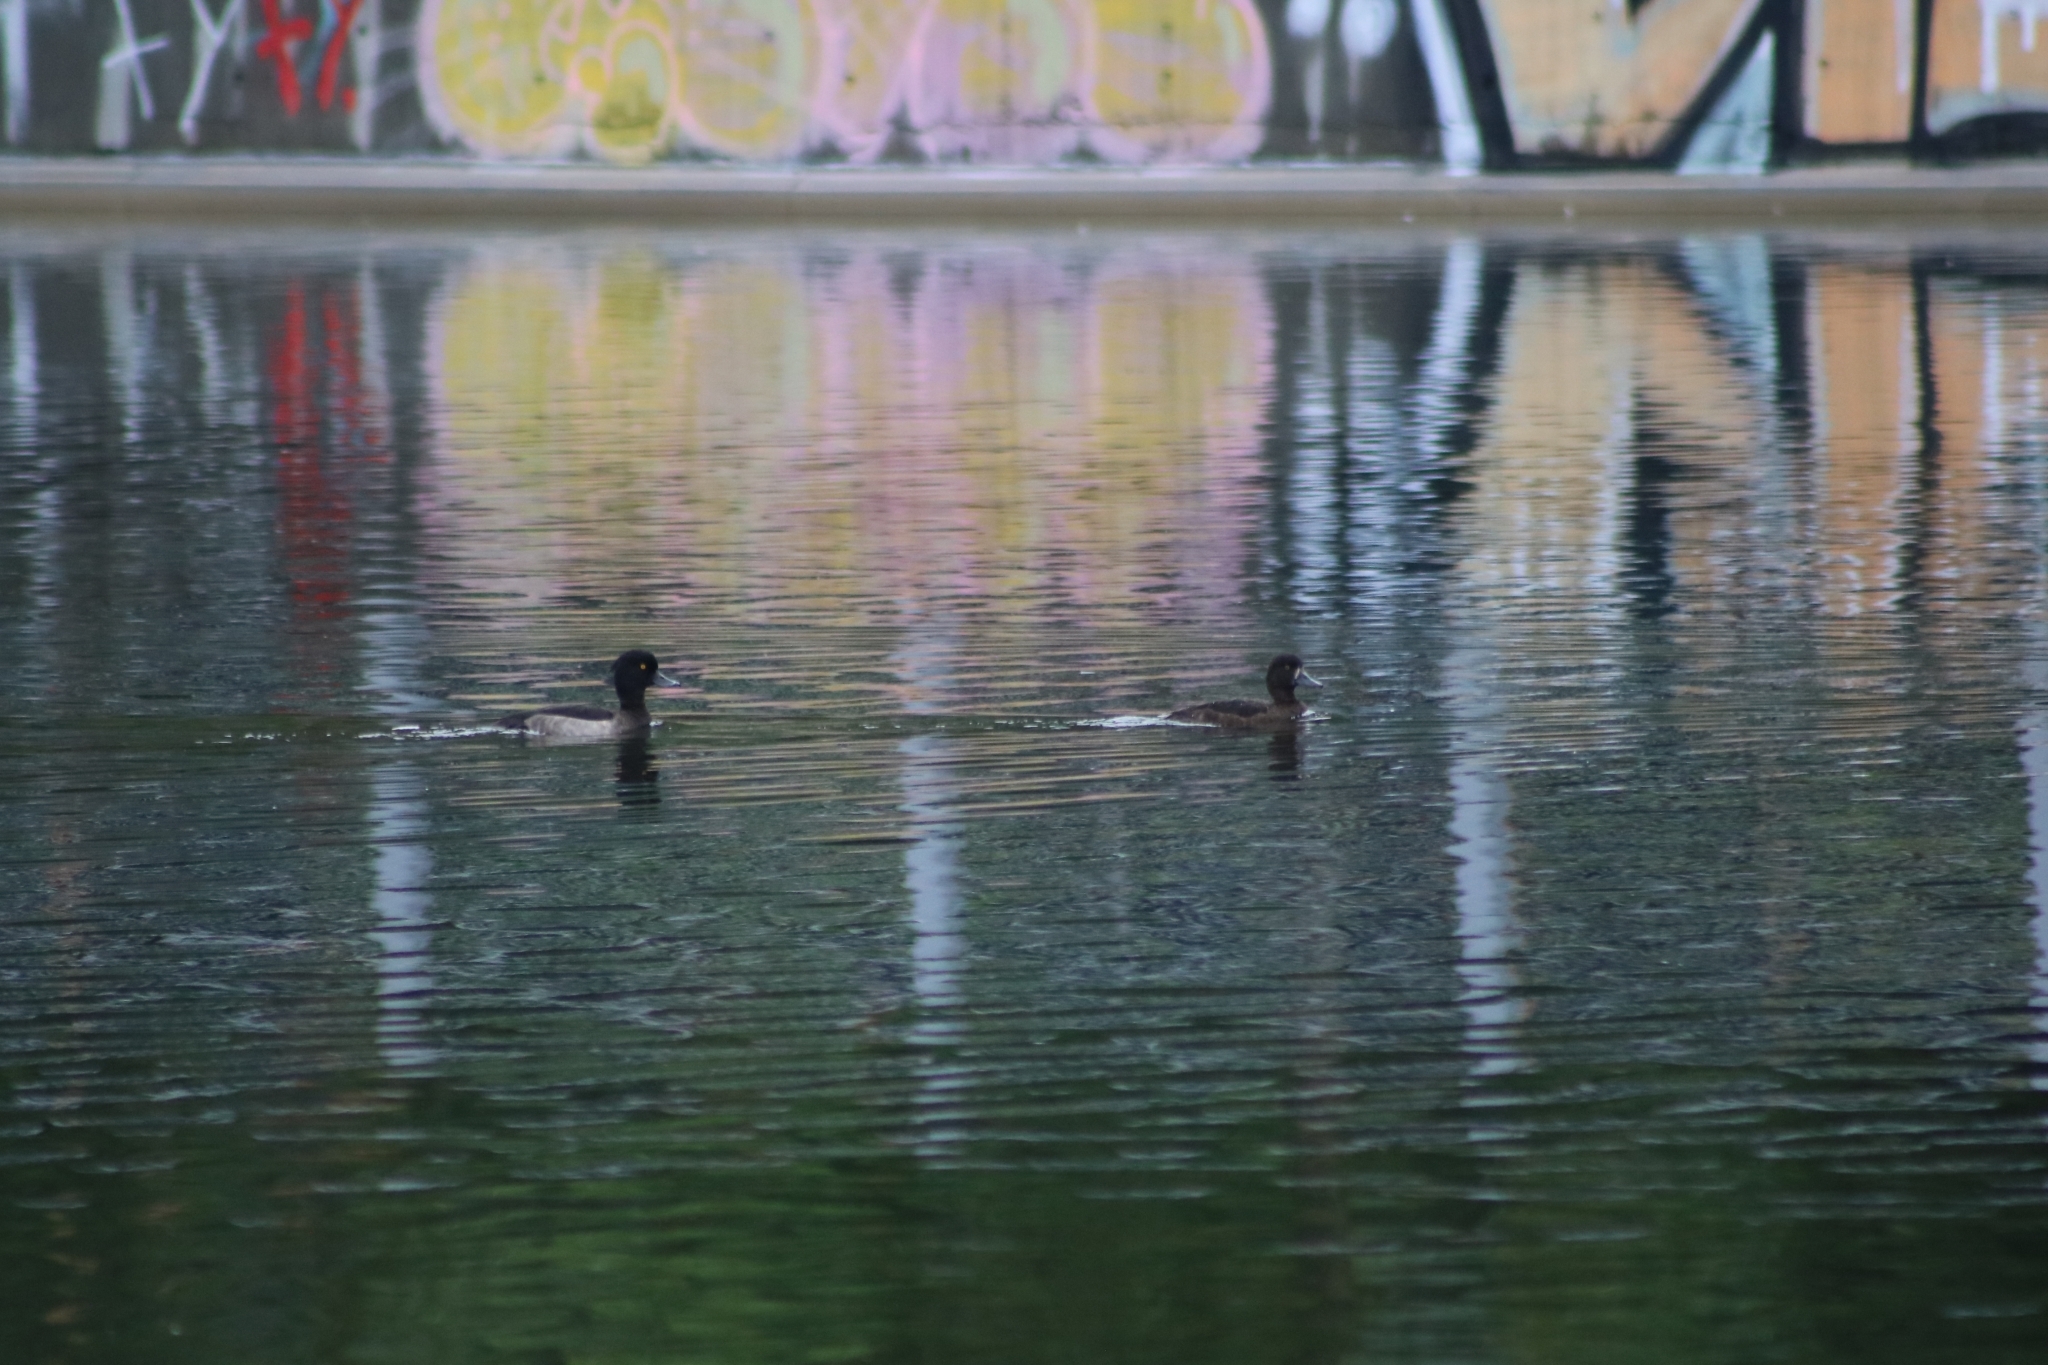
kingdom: Animalia
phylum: Chordata
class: Aves
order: Anseriformes
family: Anatidae
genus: Aythya
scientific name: Aythya fuligula
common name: Tufted duck
